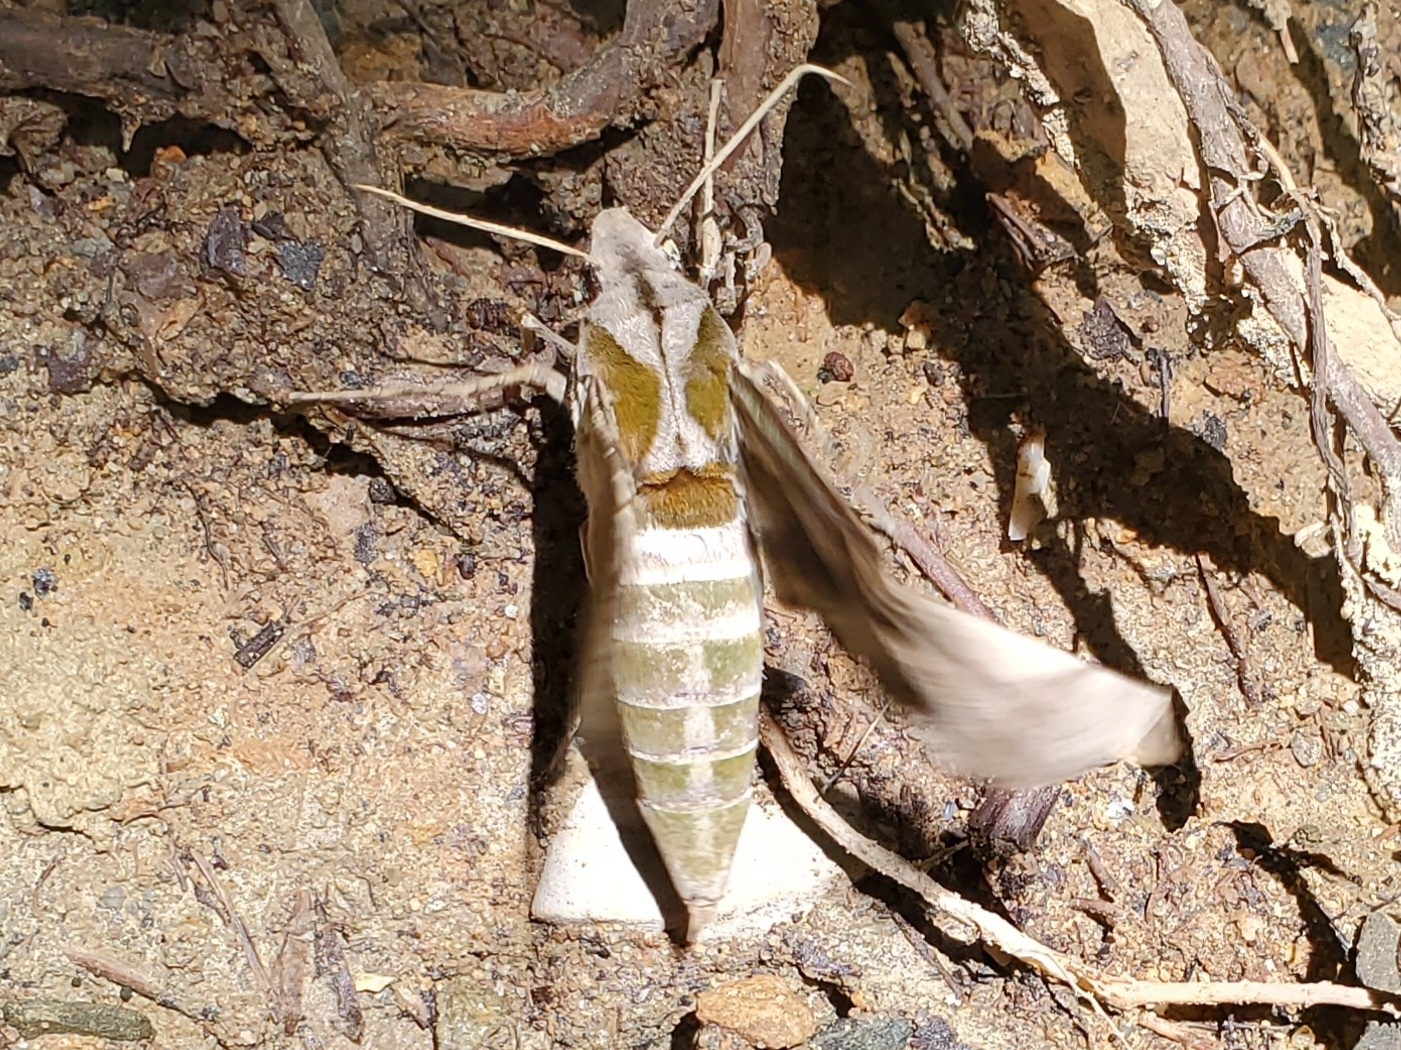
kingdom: Animalia
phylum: Arthropoda
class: Insecta
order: Lepidoptera
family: Sphingidae
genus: Eumorpha
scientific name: Eumorpha pandorus
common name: Pandora sphinx
